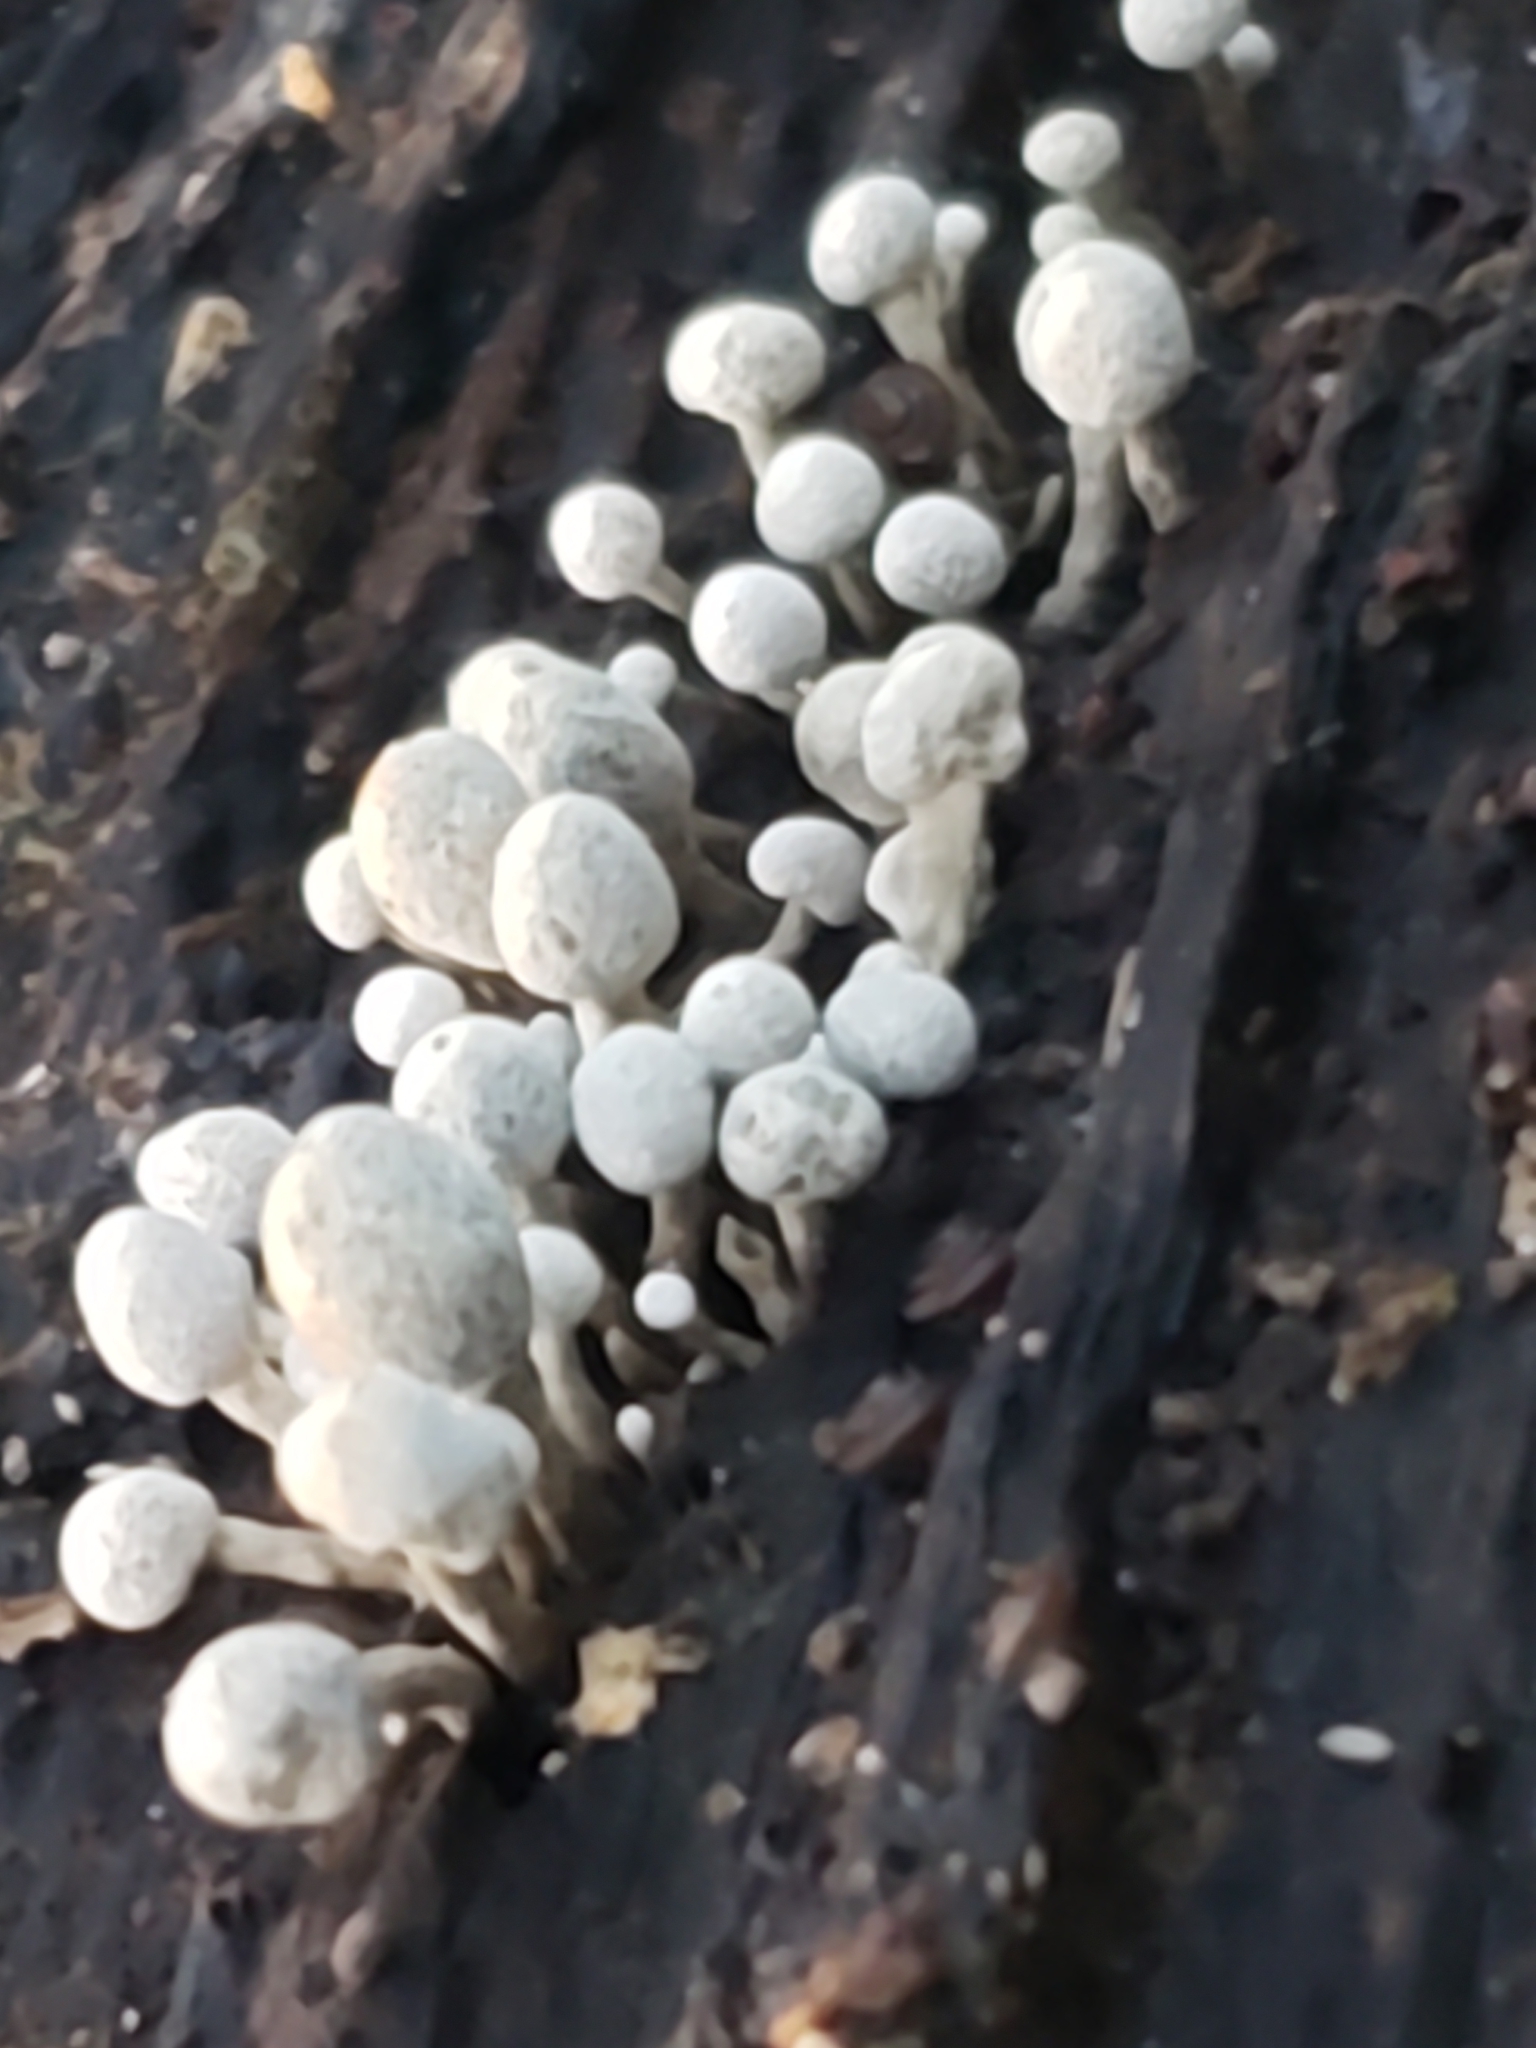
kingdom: Fungi
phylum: Basidiomycota
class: Atractiellomycetes
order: Atractiellales
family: Phleogenaceae
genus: Phleogena
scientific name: Phleogena faginea
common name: Fenugreek stalkball
